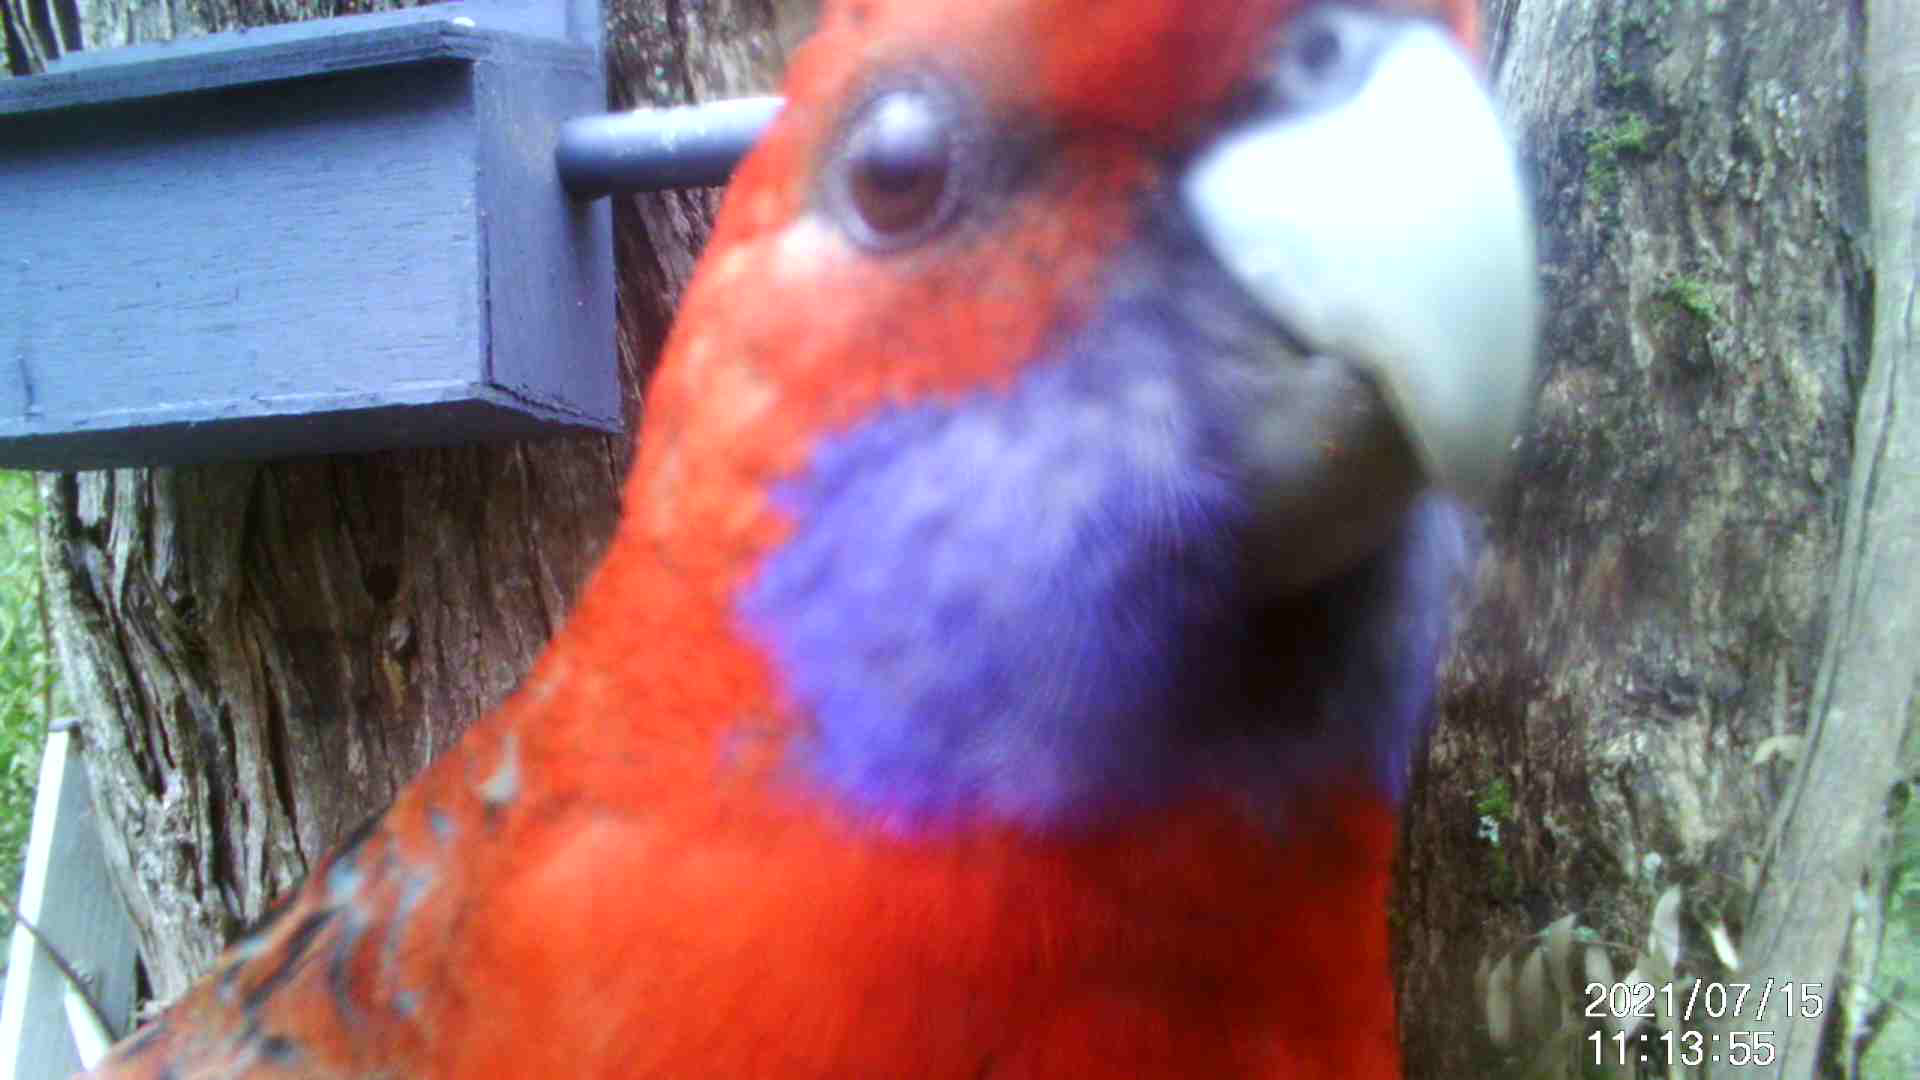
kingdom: Animalia
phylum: Chordata
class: Aves
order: Psittaciformes
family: Psittacidae
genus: Platycercus
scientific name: Platycercus elegans
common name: Crimson rosella
